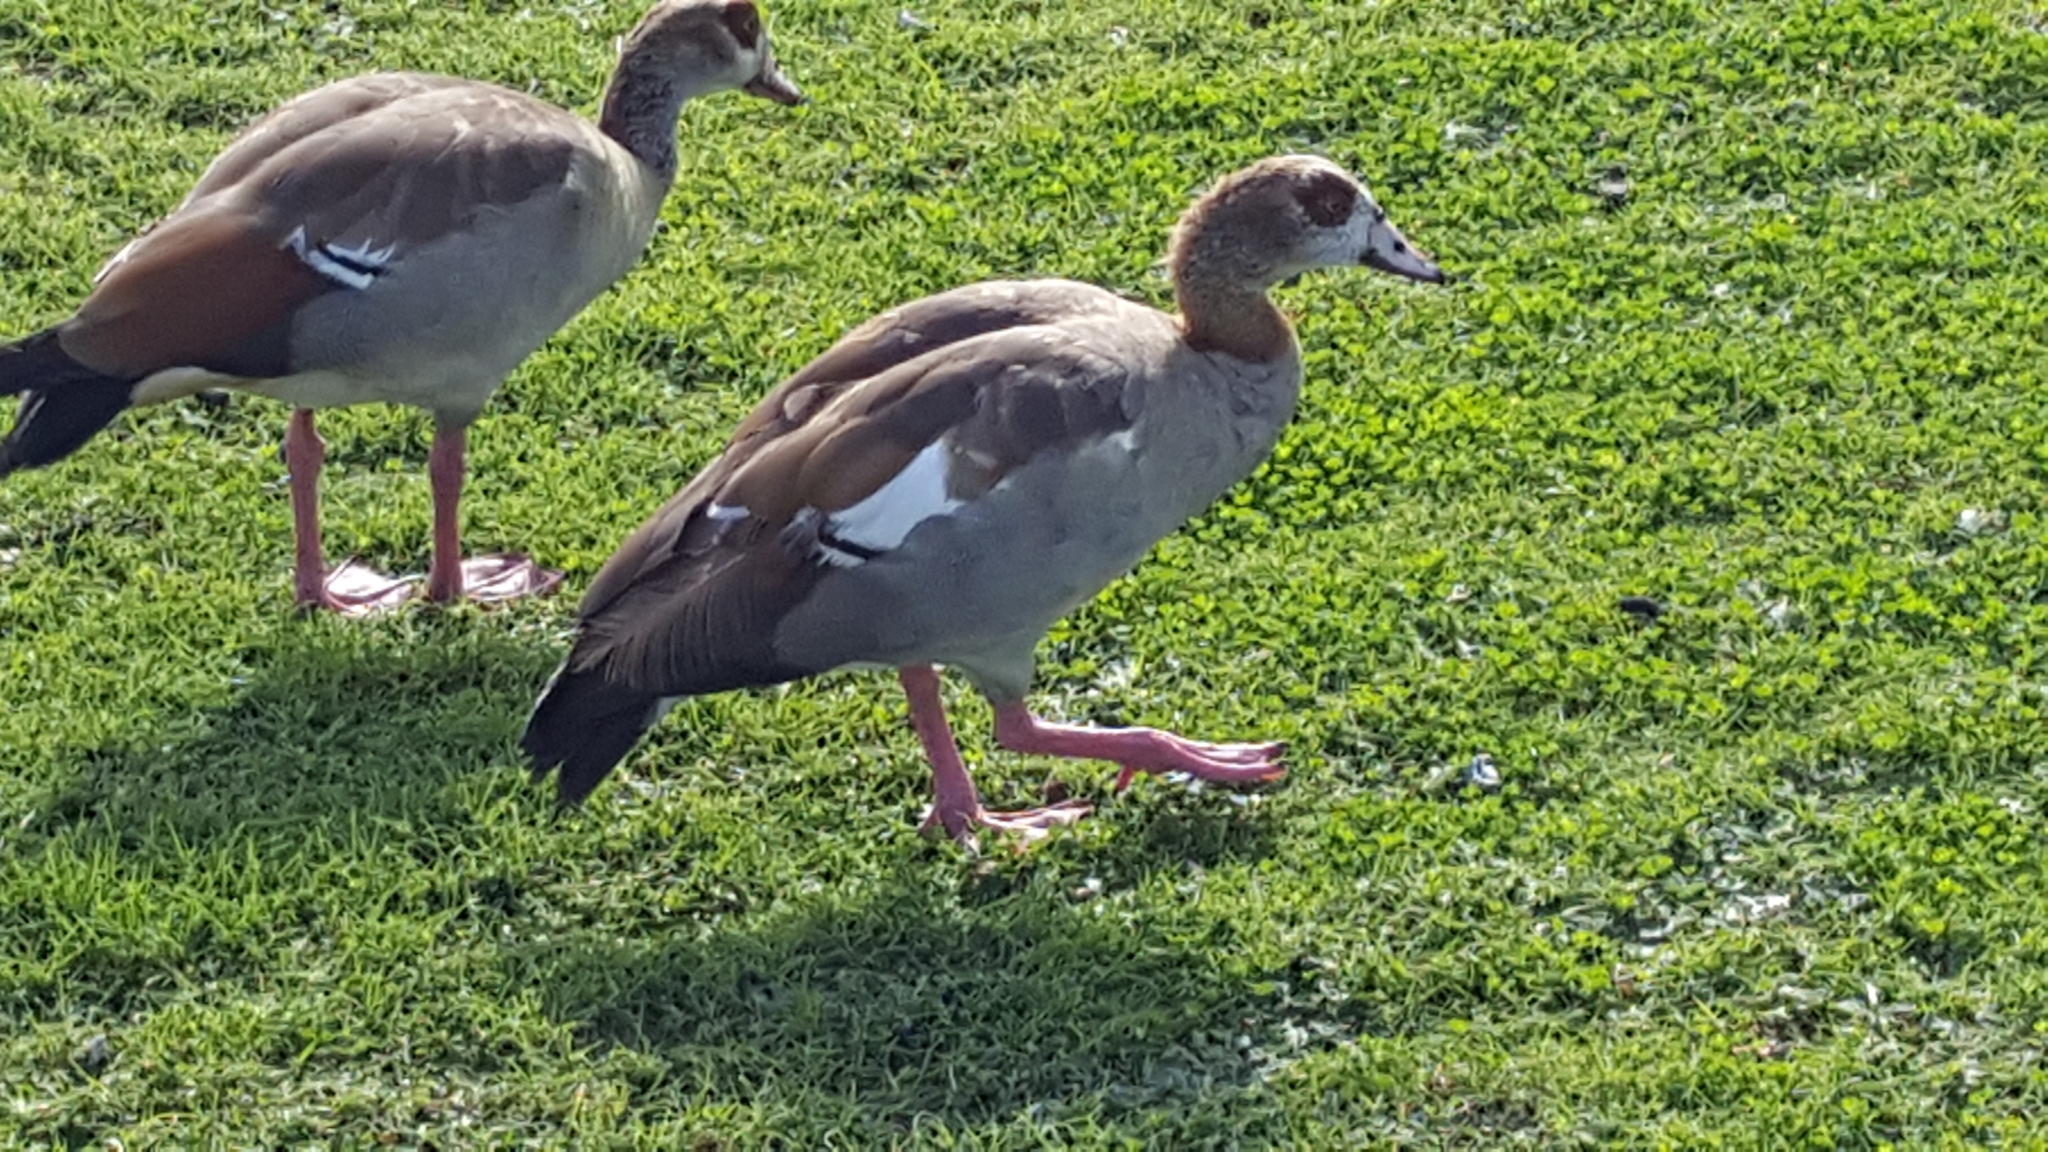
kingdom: Animalia
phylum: Chordata
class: Aves
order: Anseriformes
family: Anatidae
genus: Alopochen
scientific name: Alopochen aegyptiaca
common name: Egyptian goose
